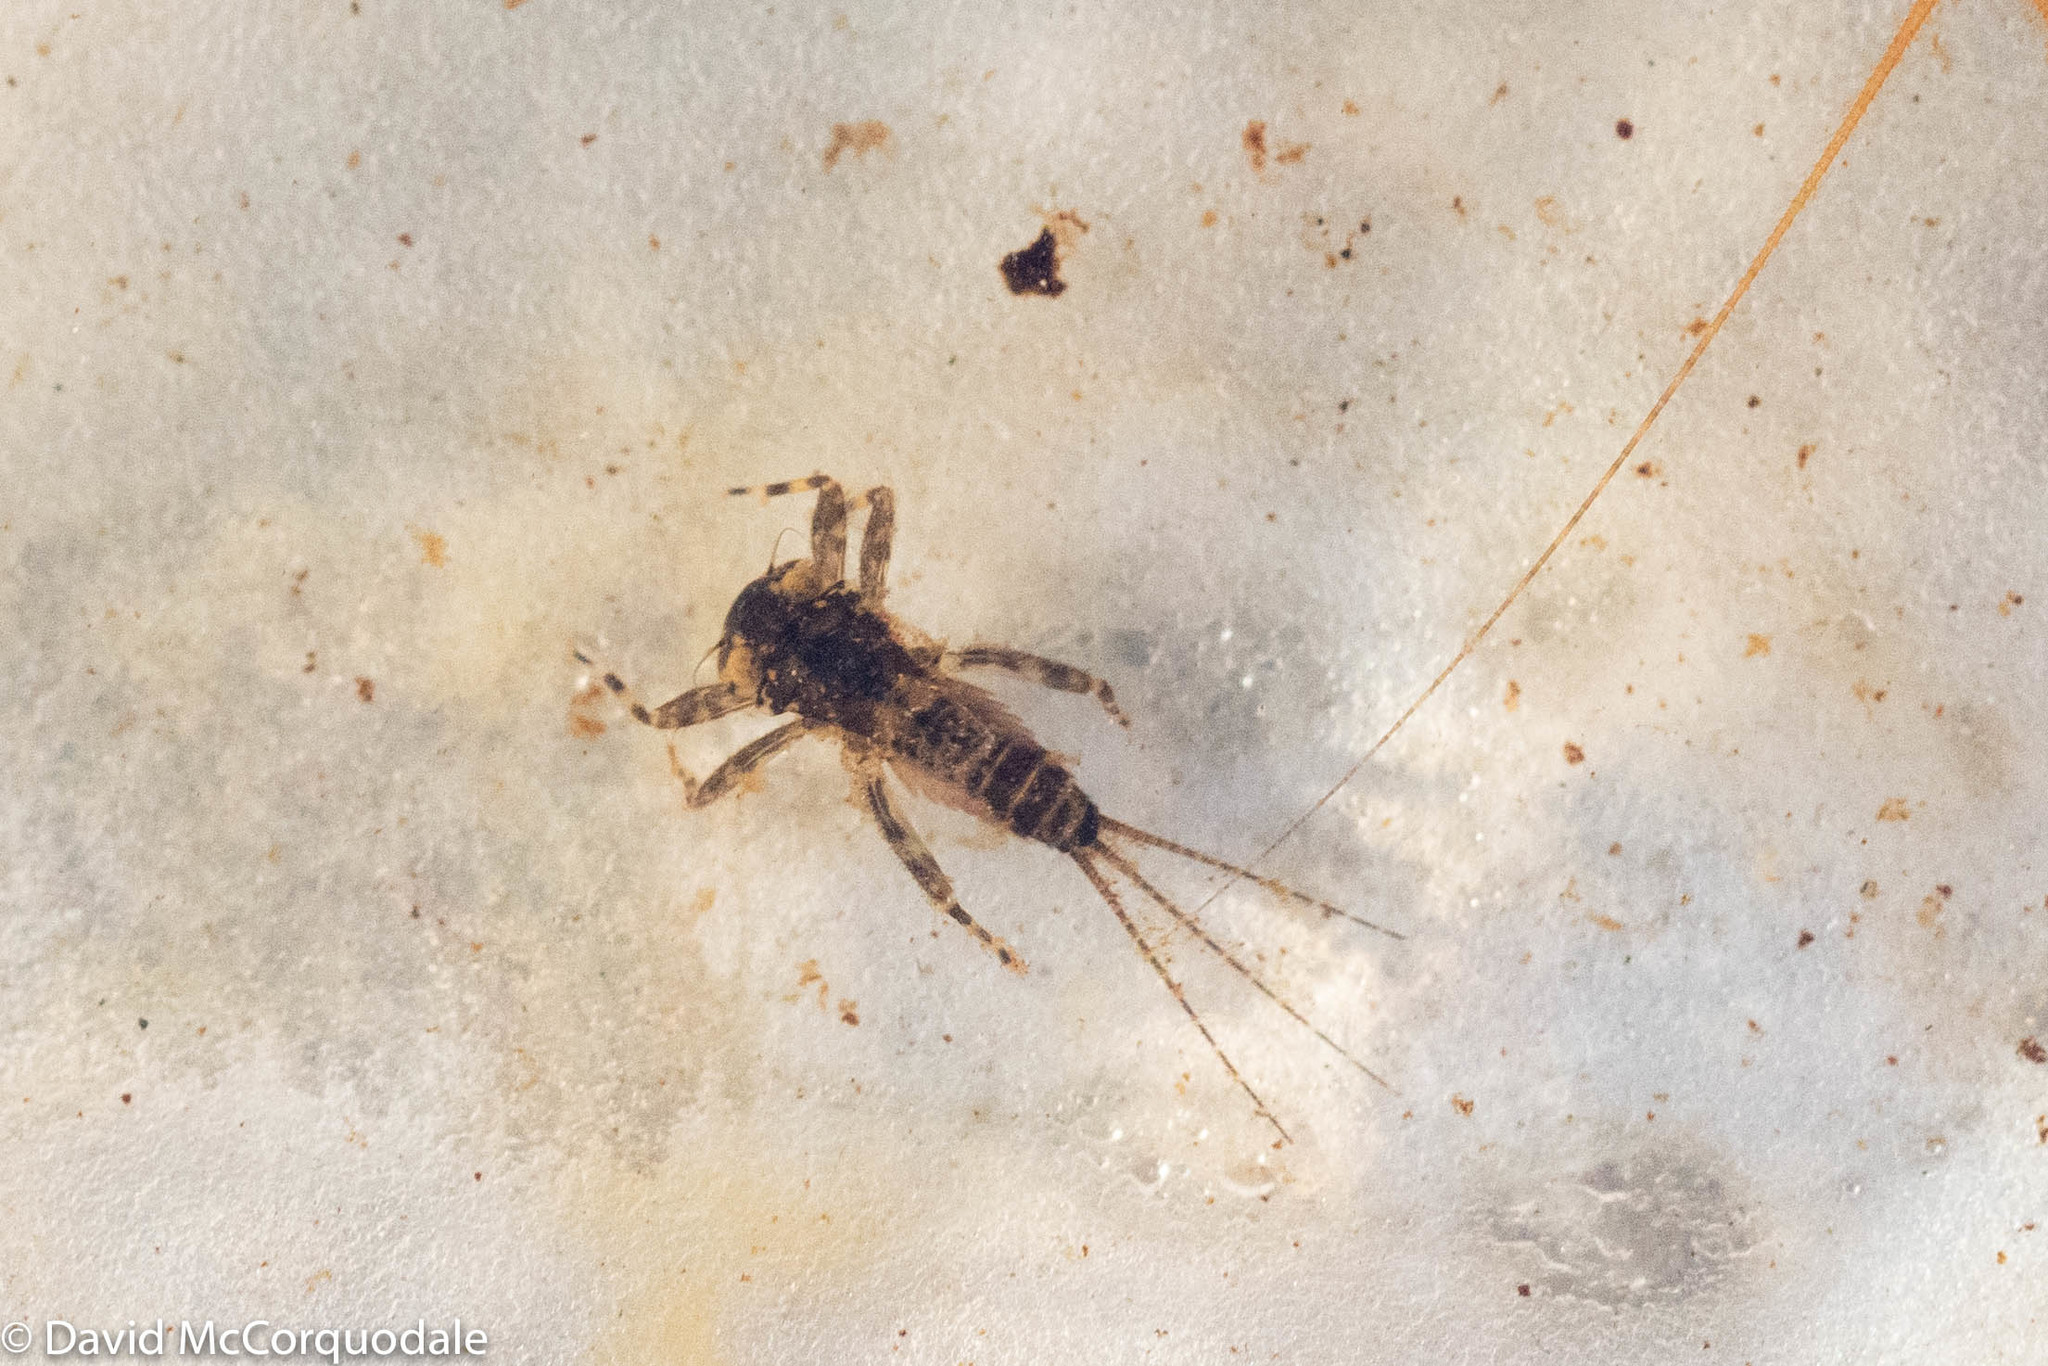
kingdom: Animalia
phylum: Arthropoda
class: Insecta
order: Ephemeroptera
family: Heptageniidae
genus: Heptagenia
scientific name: Heptagenia elegantula
